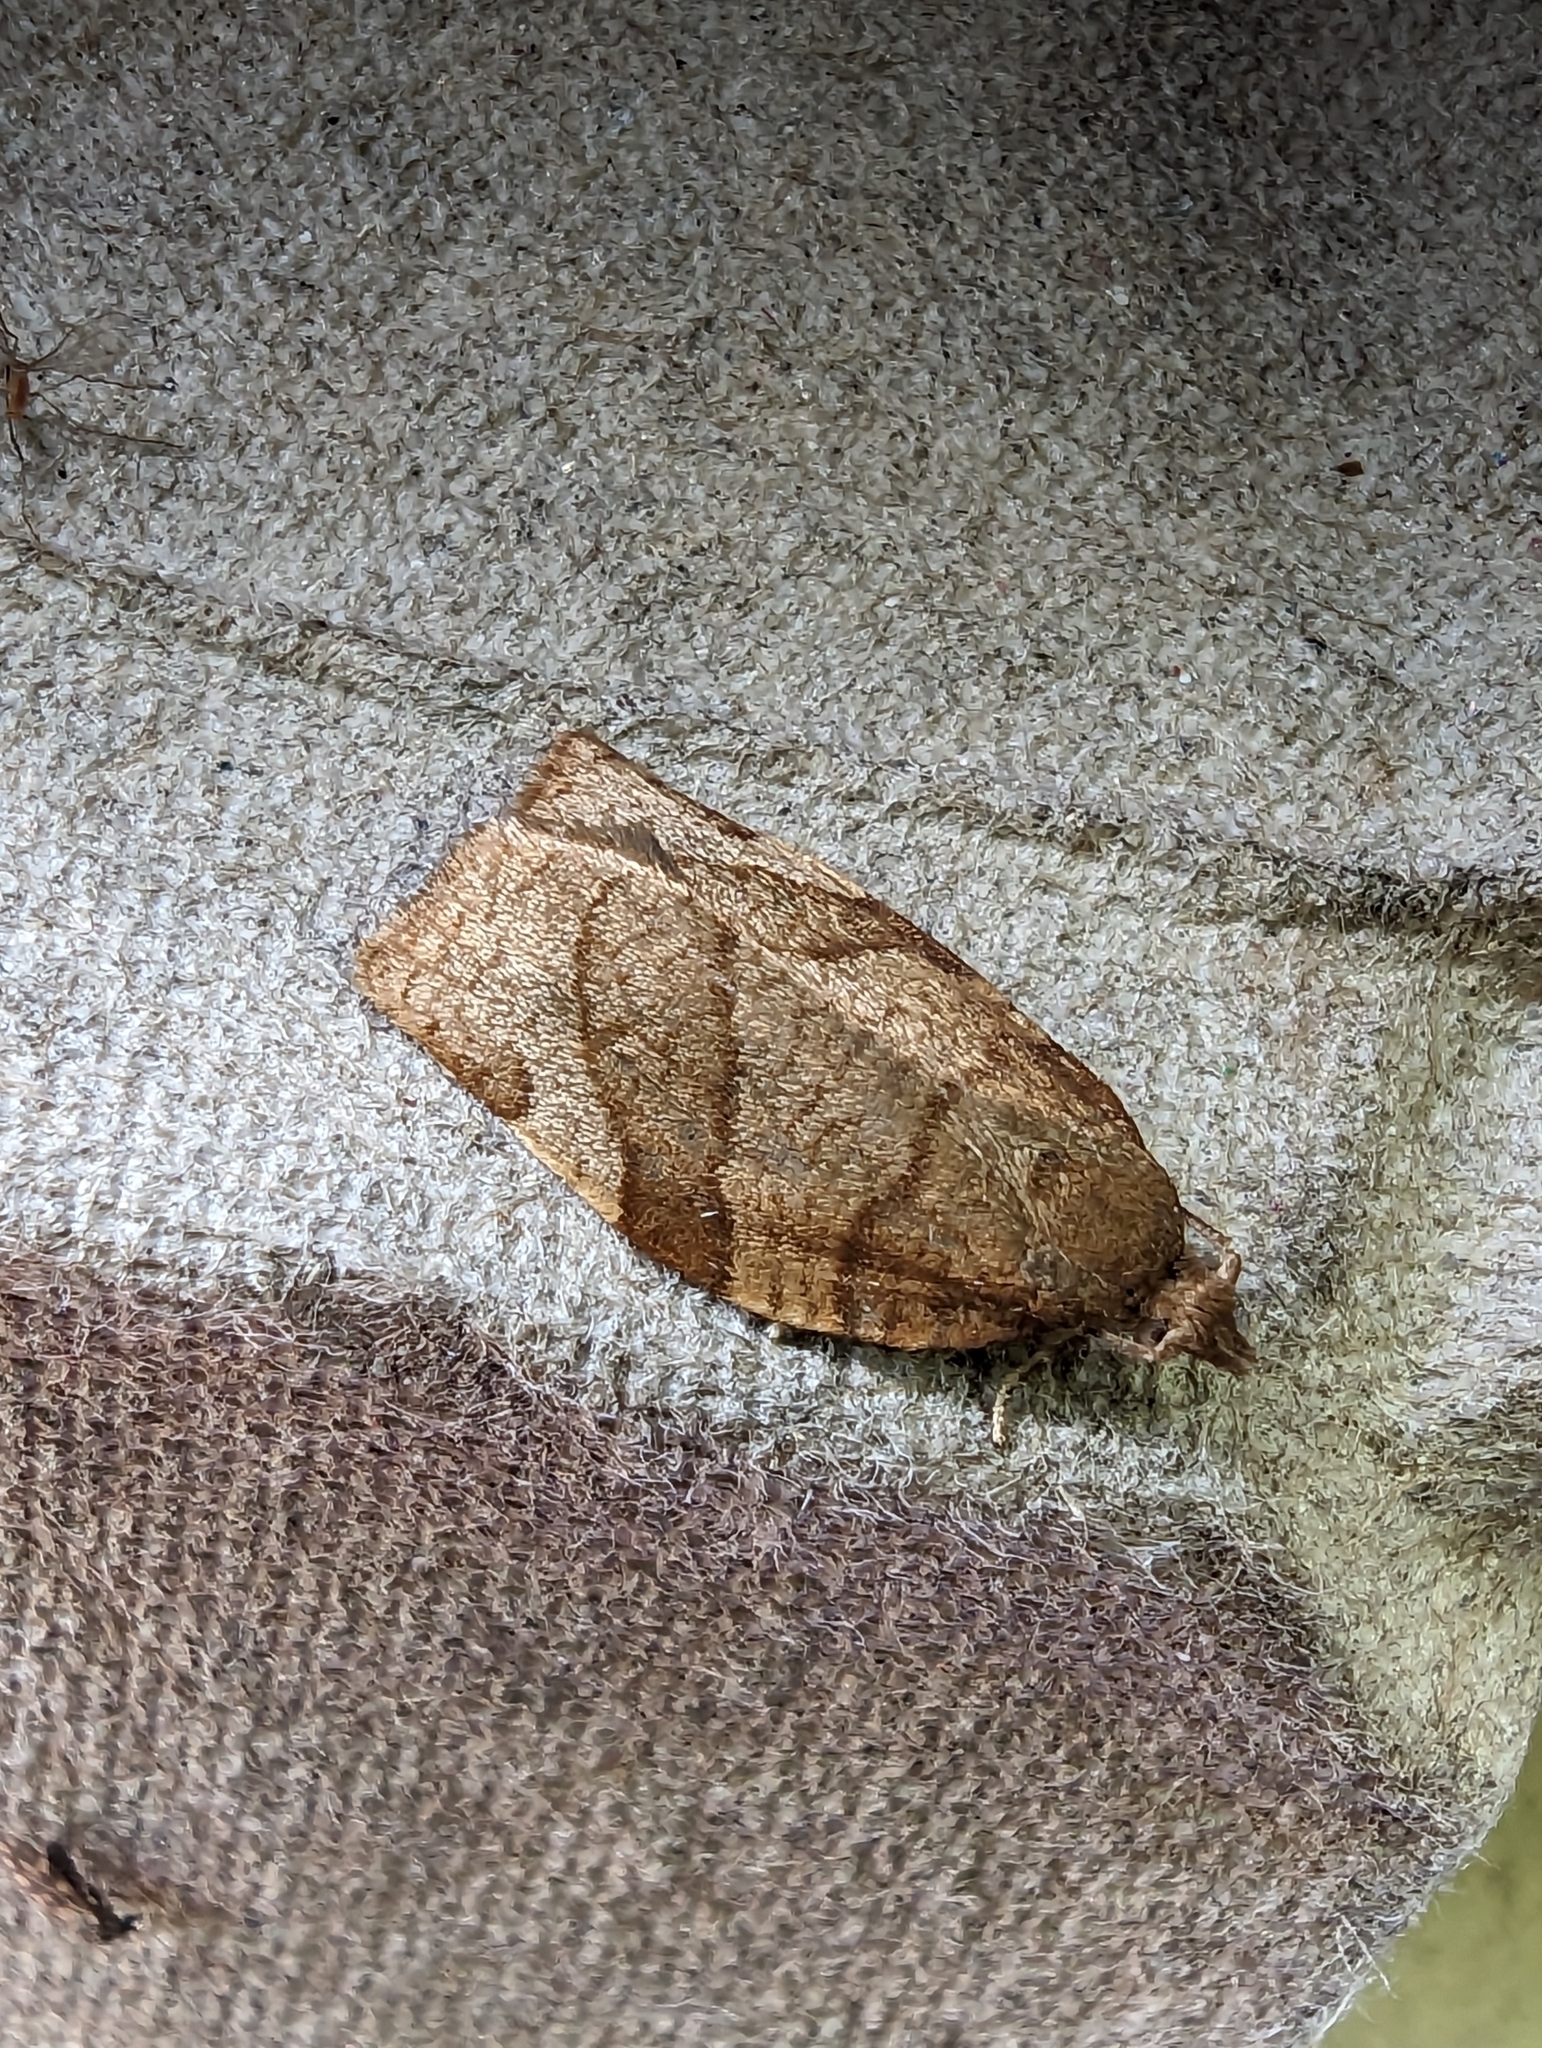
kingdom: Animalia
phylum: Arthropoda
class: Insecta
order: Lepidoptera
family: Tortricidae
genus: Pandemis
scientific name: Pandemis cerasana
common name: Barred fruit-tree tortrix
